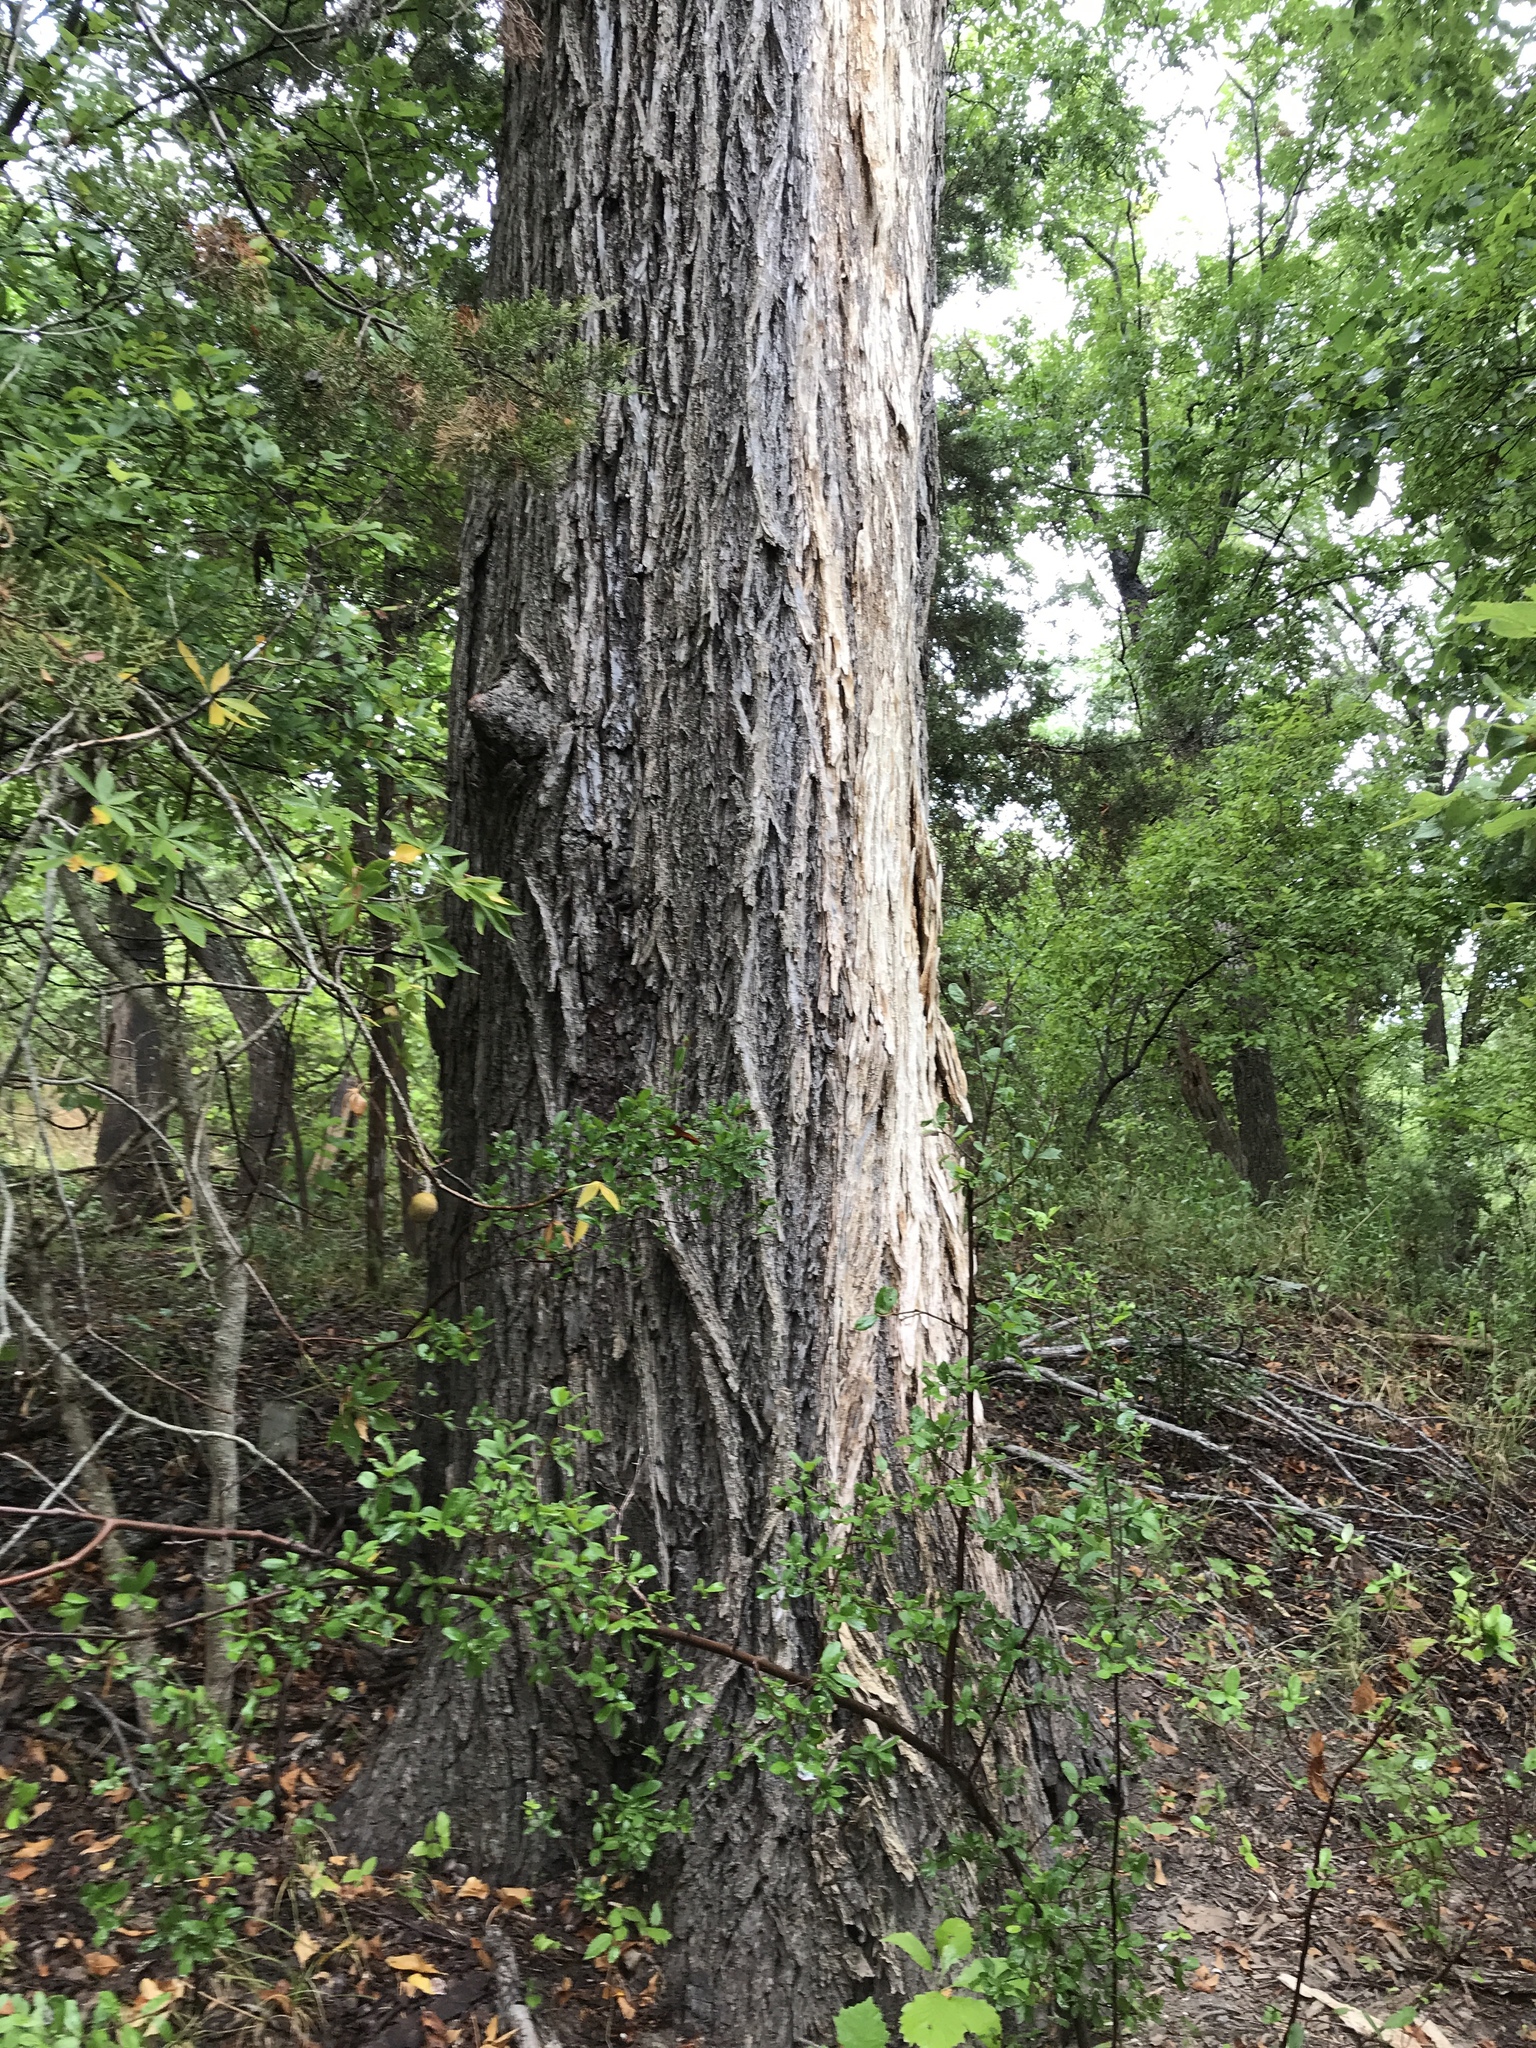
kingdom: Plantae
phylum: Tracheophyta
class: Magnoliopsida
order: Rosales
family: Ulmaceae
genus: Ulmus
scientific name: Ulmus americana
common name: American elm
